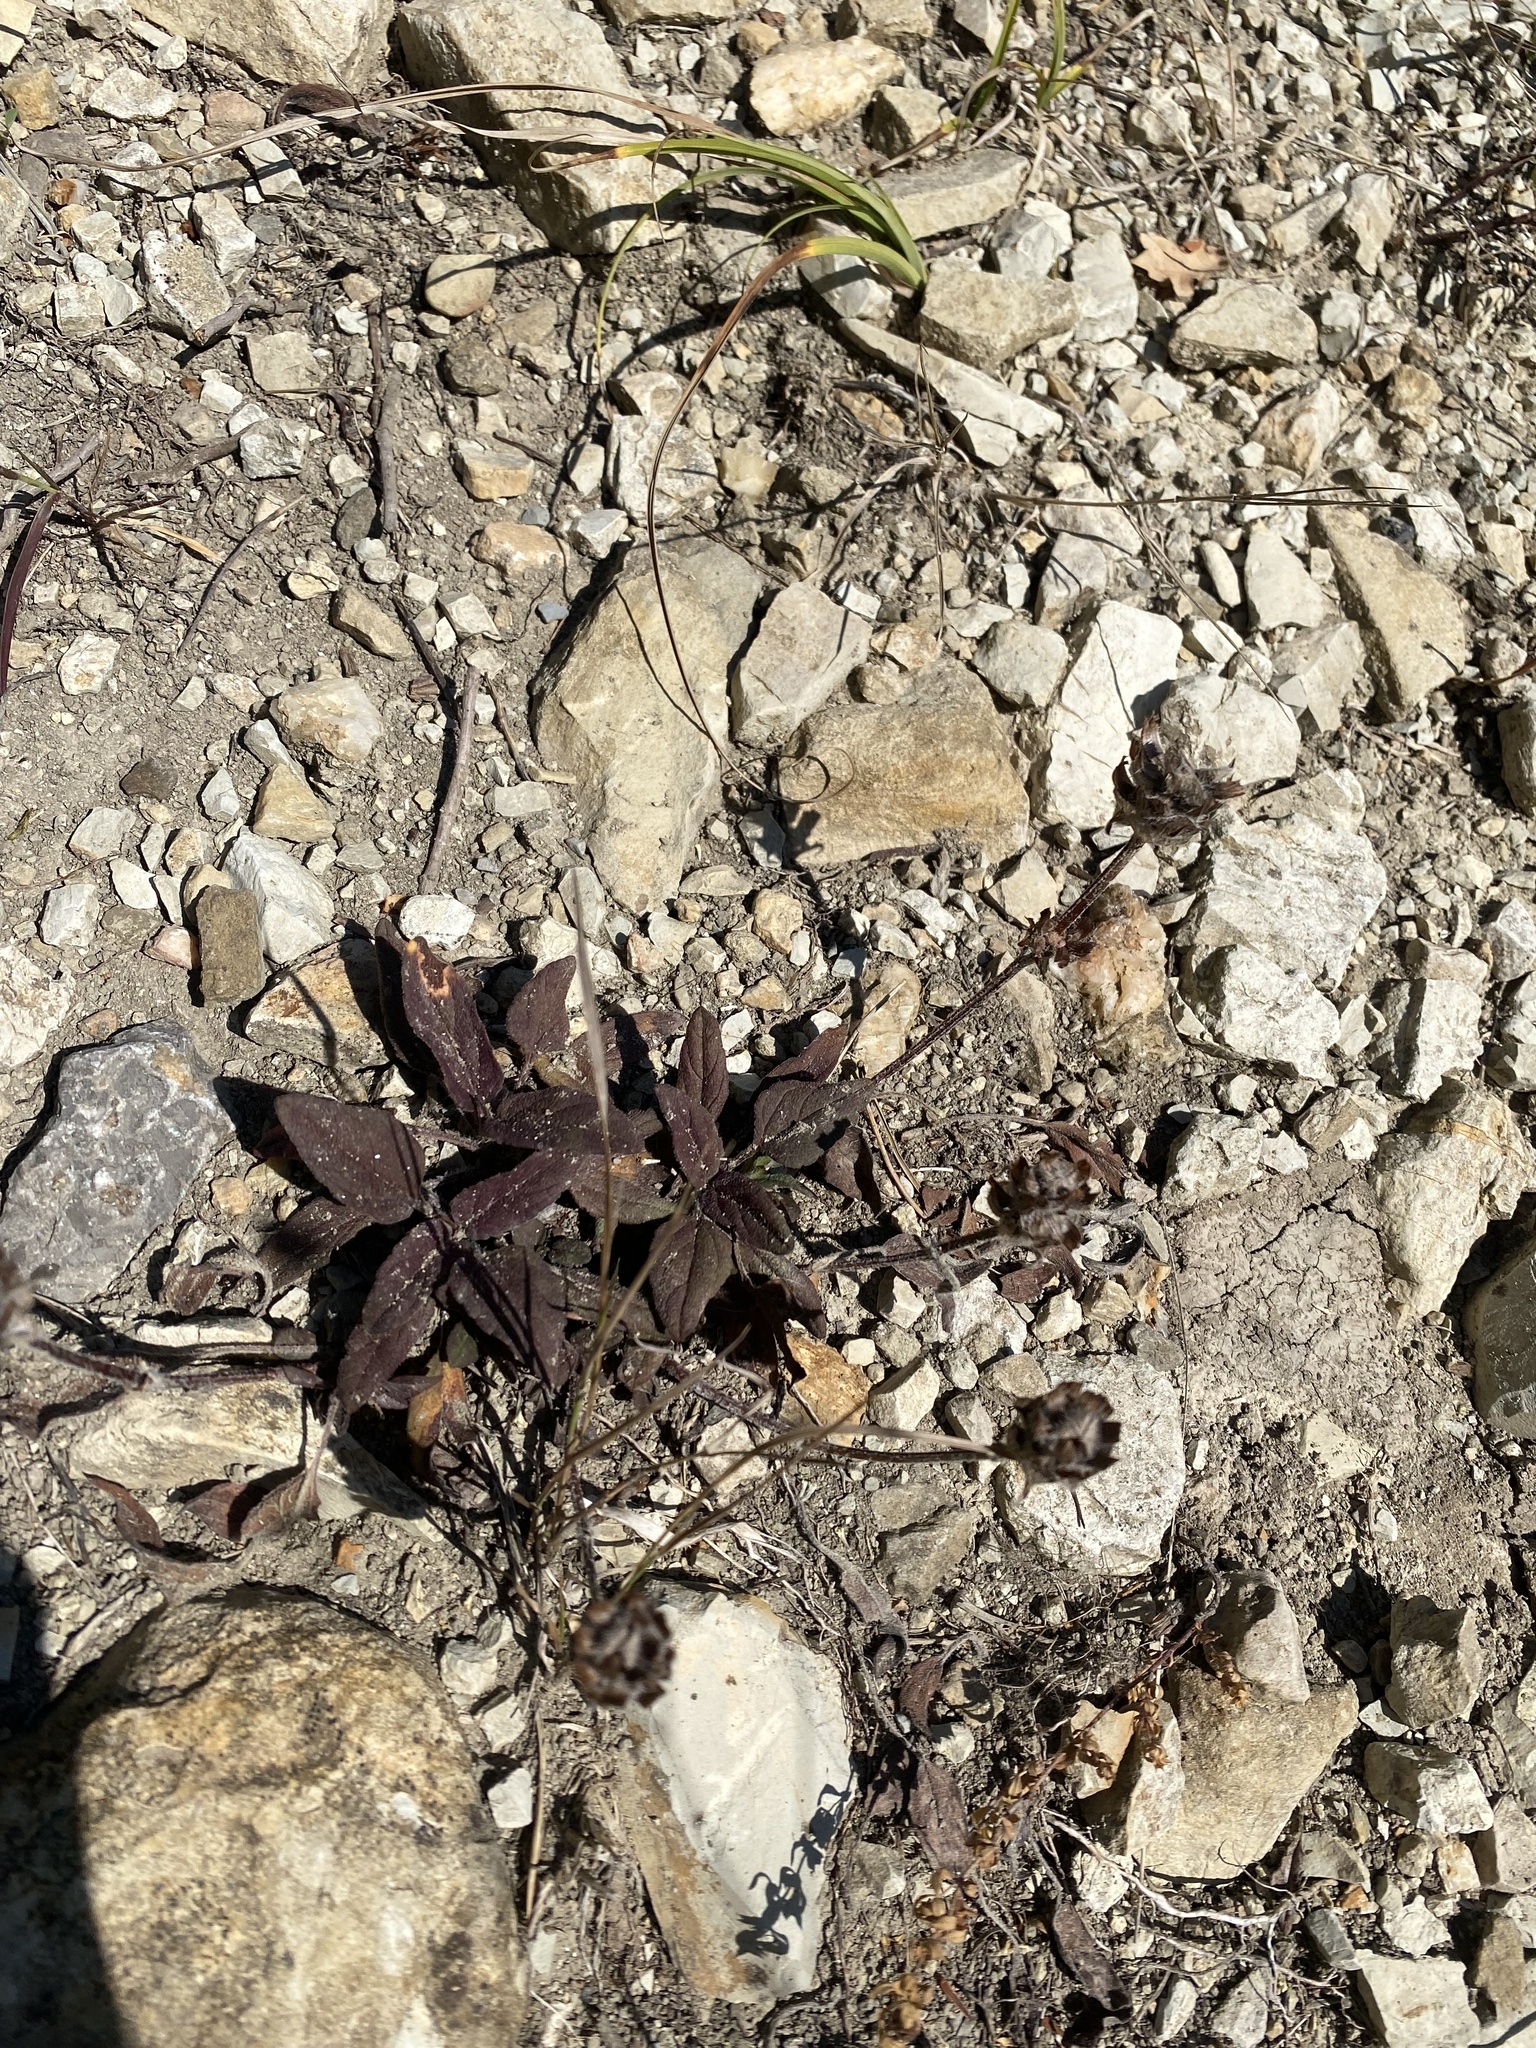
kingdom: Plantae
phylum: Tracheophyta
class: Magnoliopsida
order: Lamiales
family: Lamiaceae
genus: Prunella
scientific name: Prunella vulgaris
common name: Heal-all
